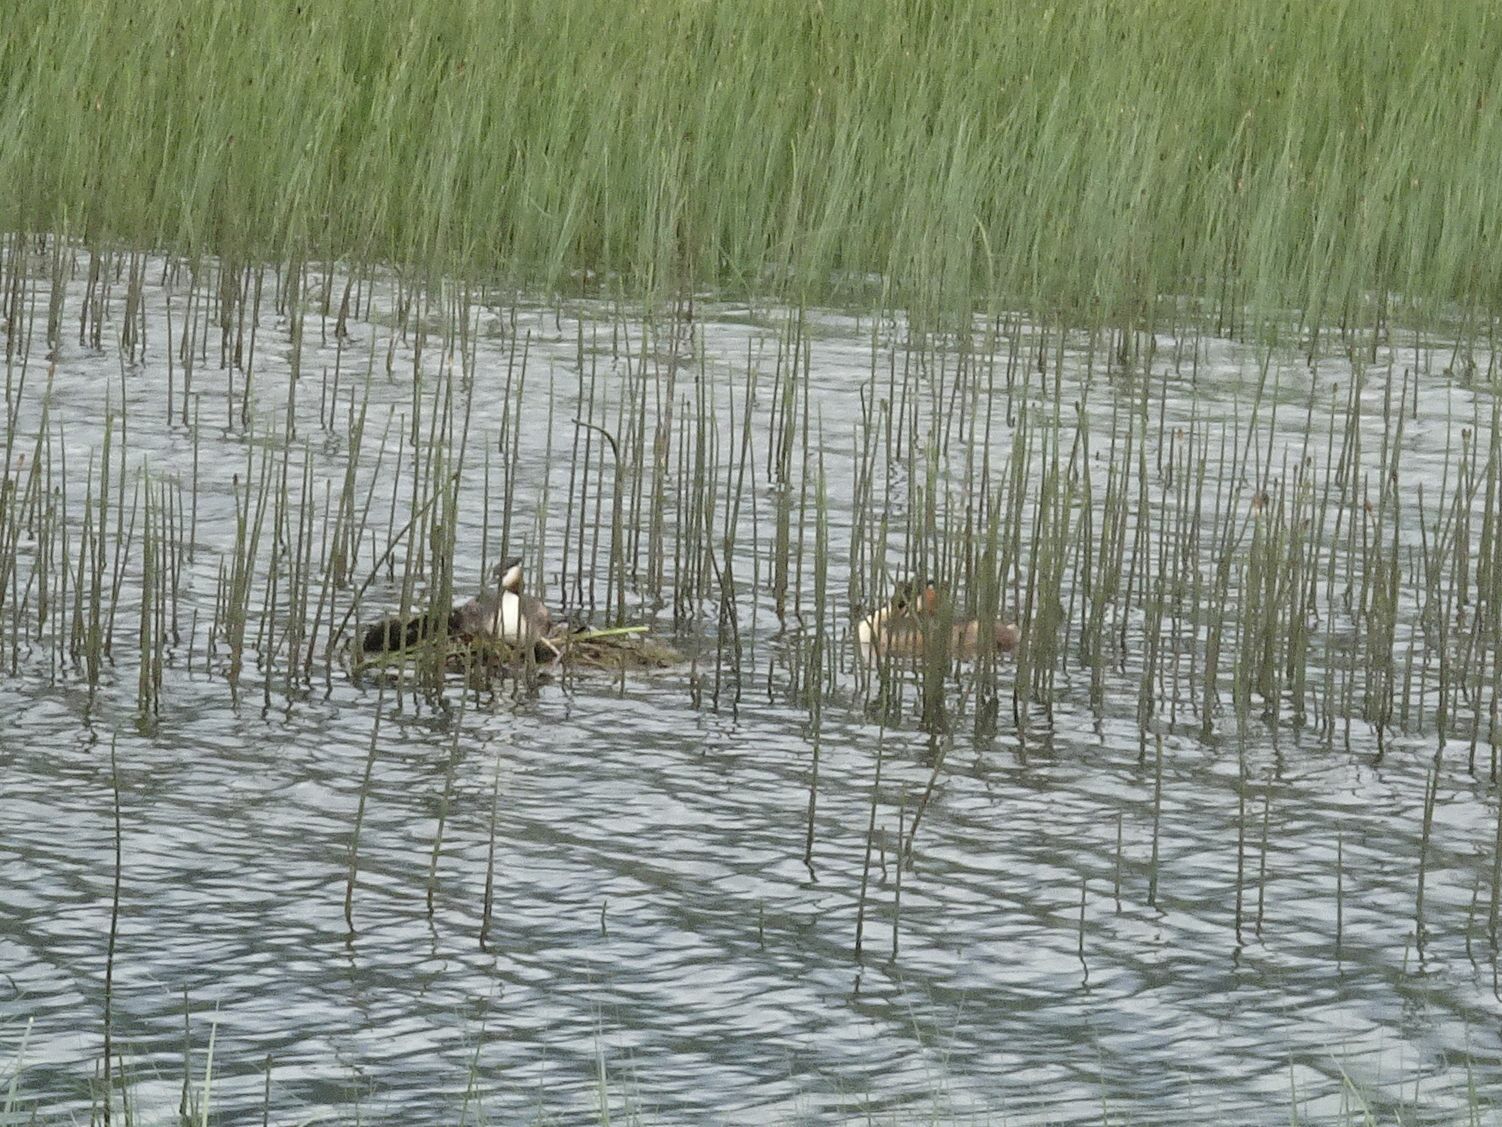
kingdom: Animalia
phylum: Chordata
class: Aves
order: Podicipediformes
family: Podicipedidae
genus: Podiceps
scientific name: Podiceps cristatus
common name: Great crested grebe
